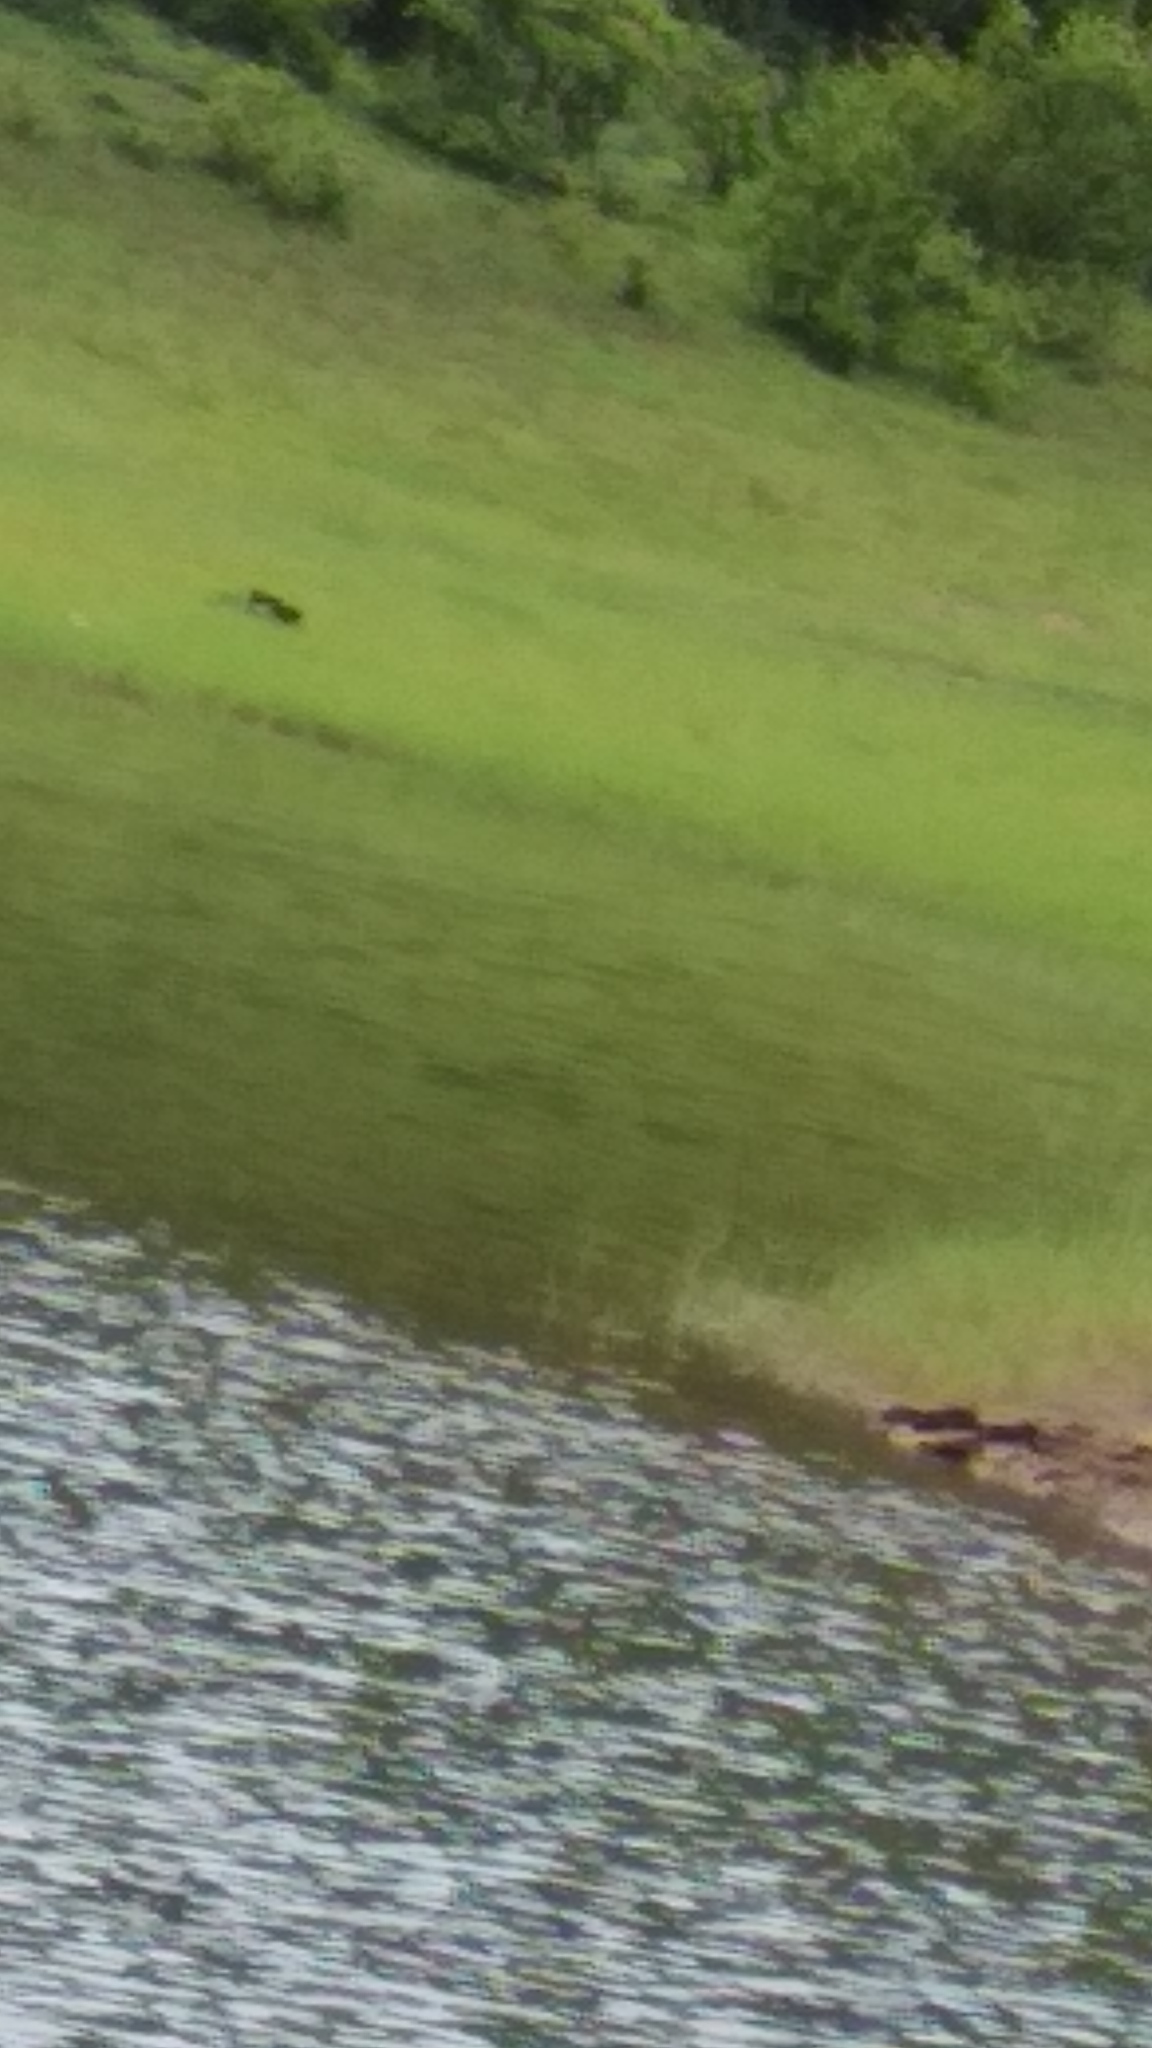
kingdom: Animalia
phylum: Chordata
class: Mammalia
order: Carnivora
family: Mustelidae
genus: Lutrogale
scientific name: Lutrogale perspicillata
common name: Smooth-coated otter
